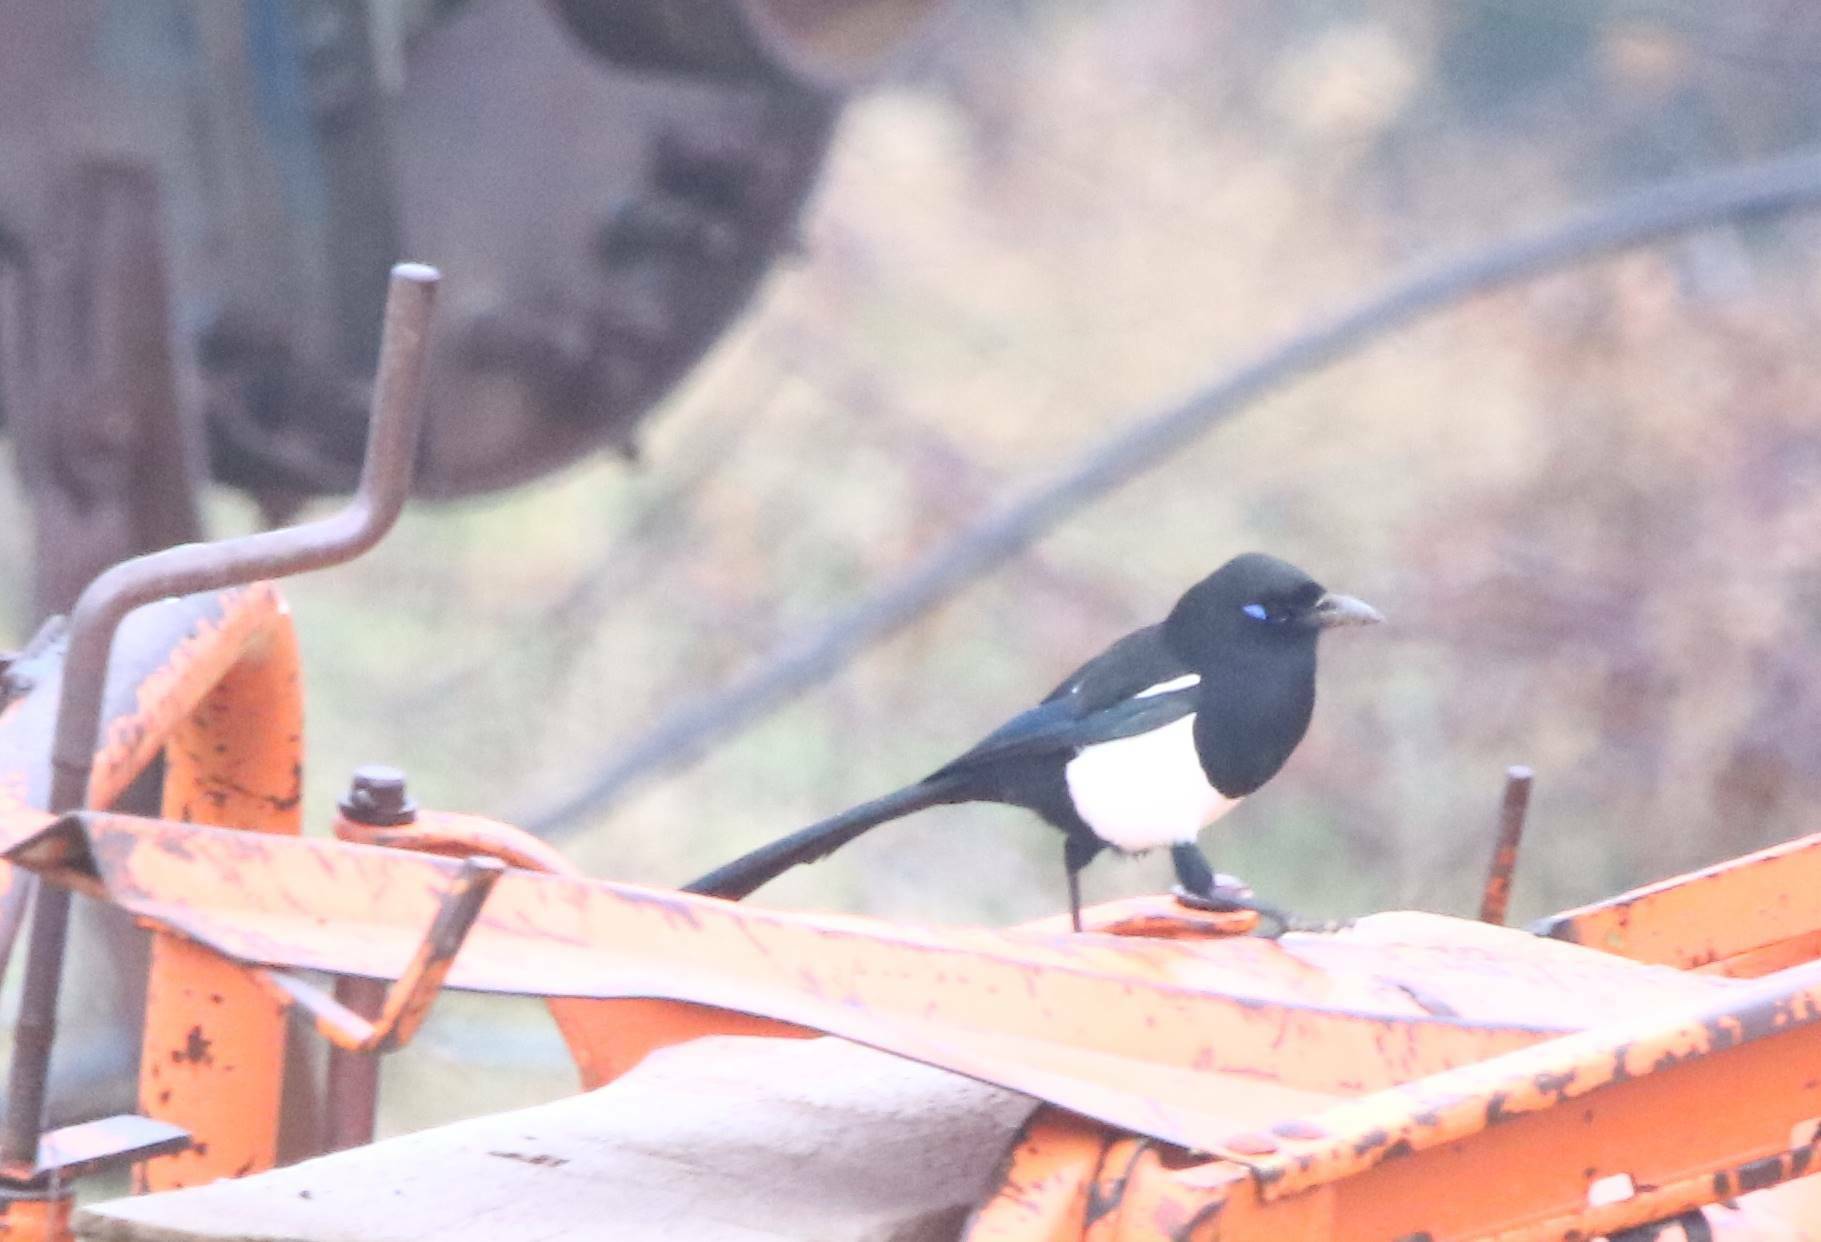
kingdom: Animalia
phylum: Chordata
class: Aves
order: Passeriformes
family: Corvidae
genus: Pica
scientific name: Pica mauritanica
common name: Maghreb magpie
